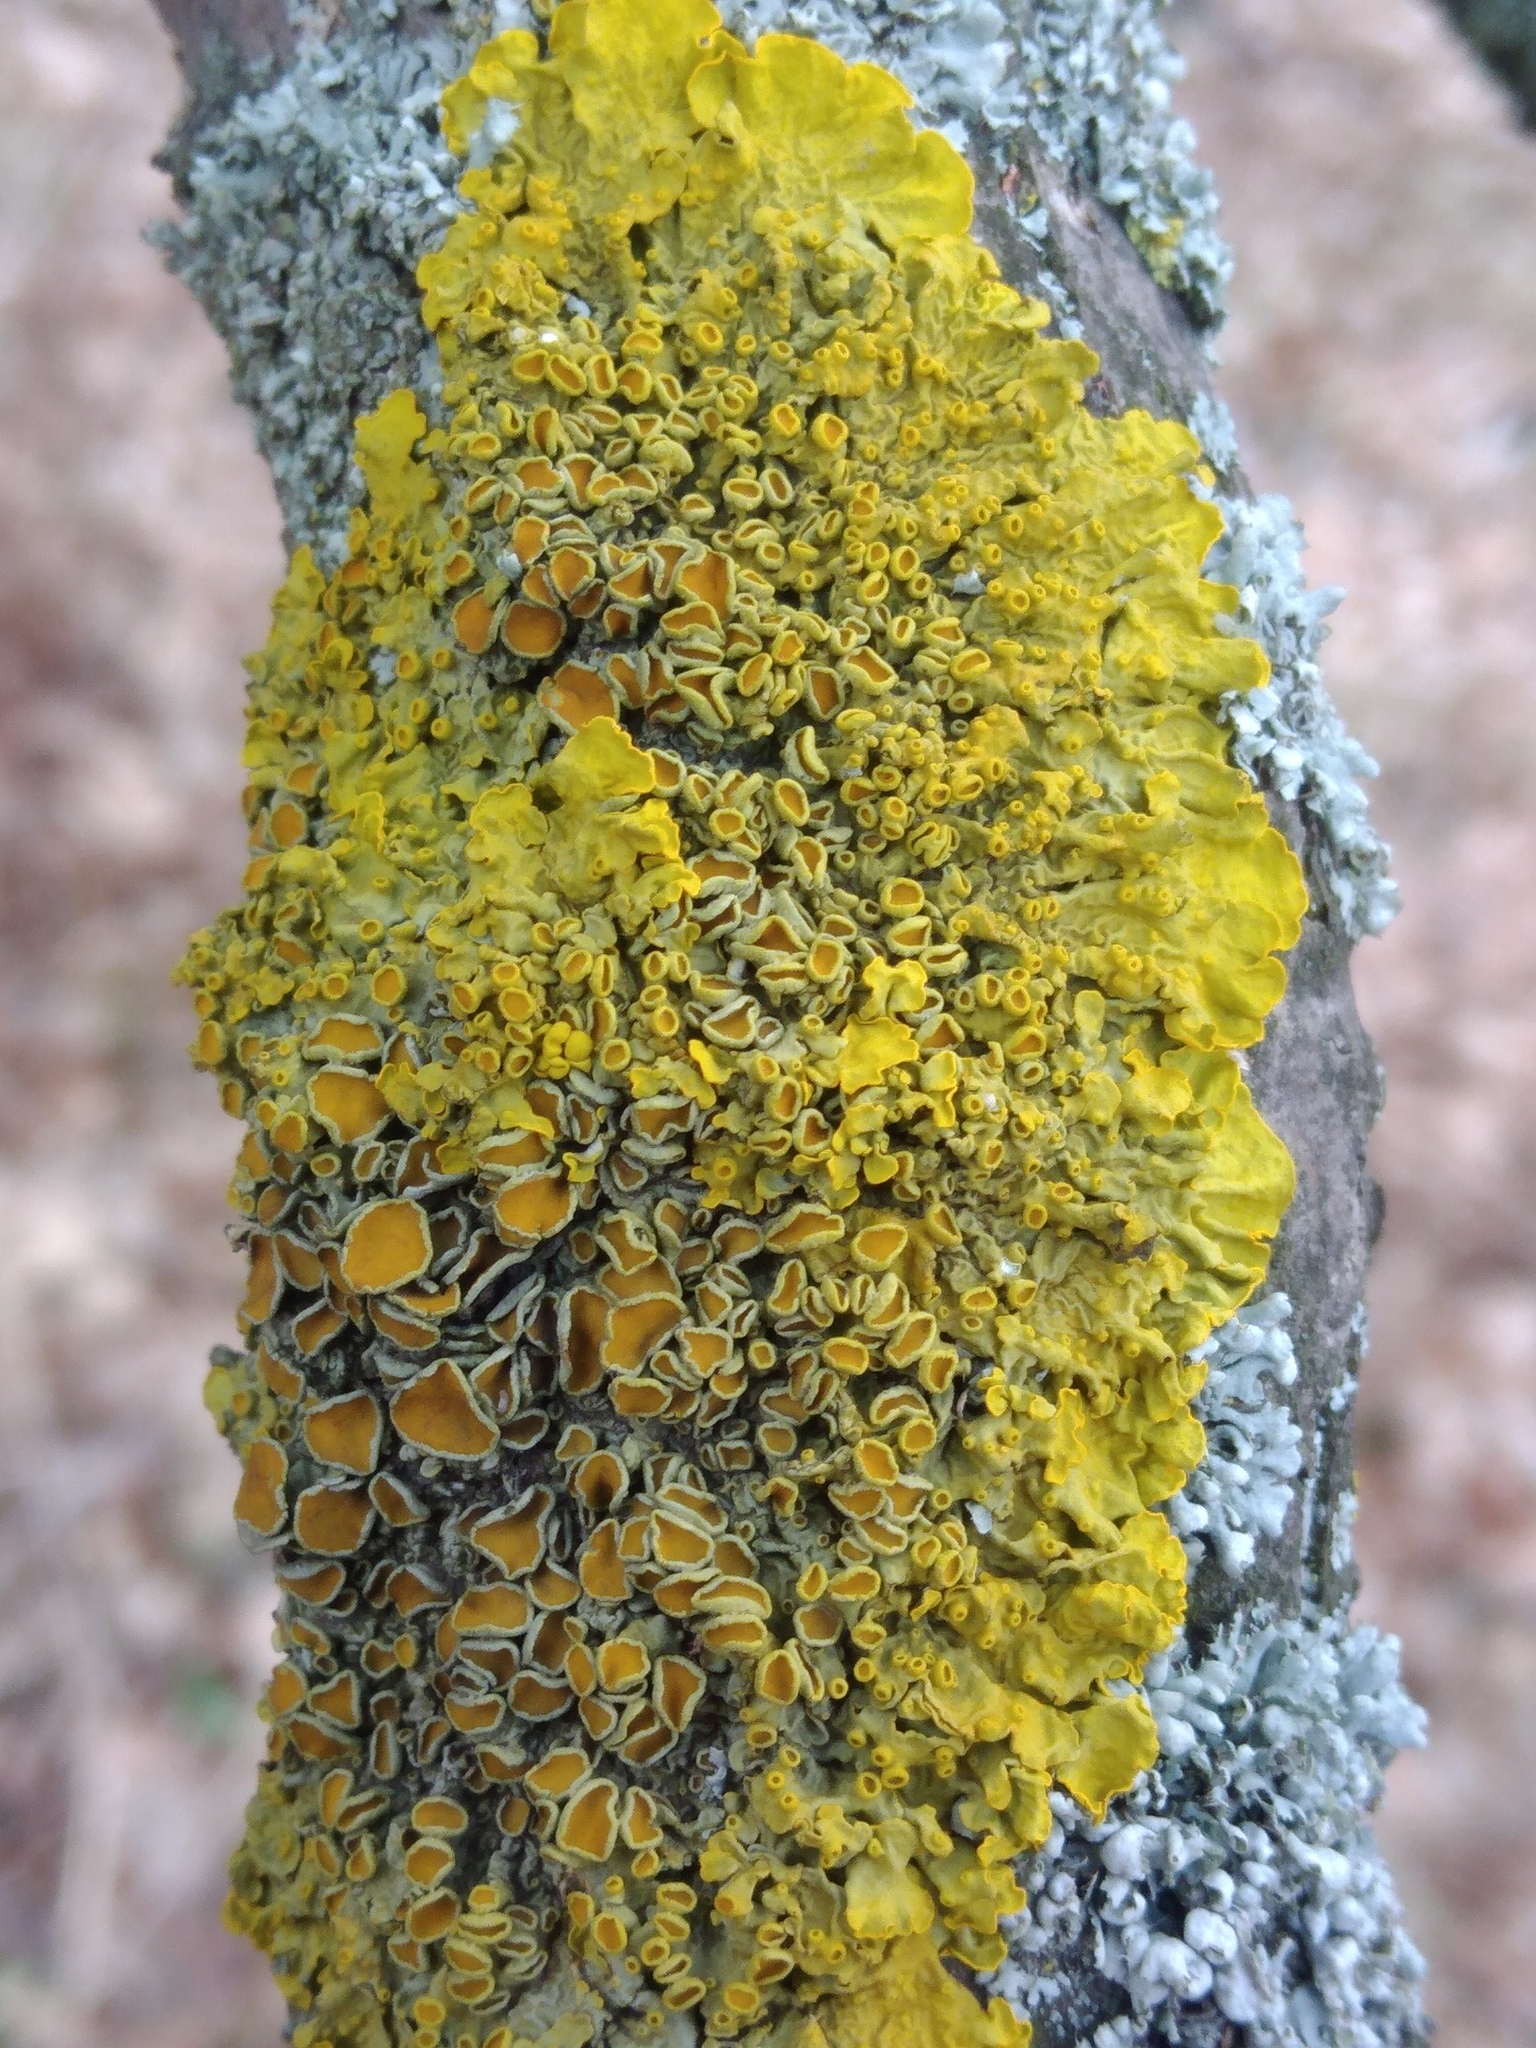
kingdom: Fungi
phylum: Ascomycota
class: Lecanoromycetes
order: Teloschistales
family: Teloschistaceae
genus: Xanthoria
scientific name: Xanthoria parietina
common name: Common orange lichen
